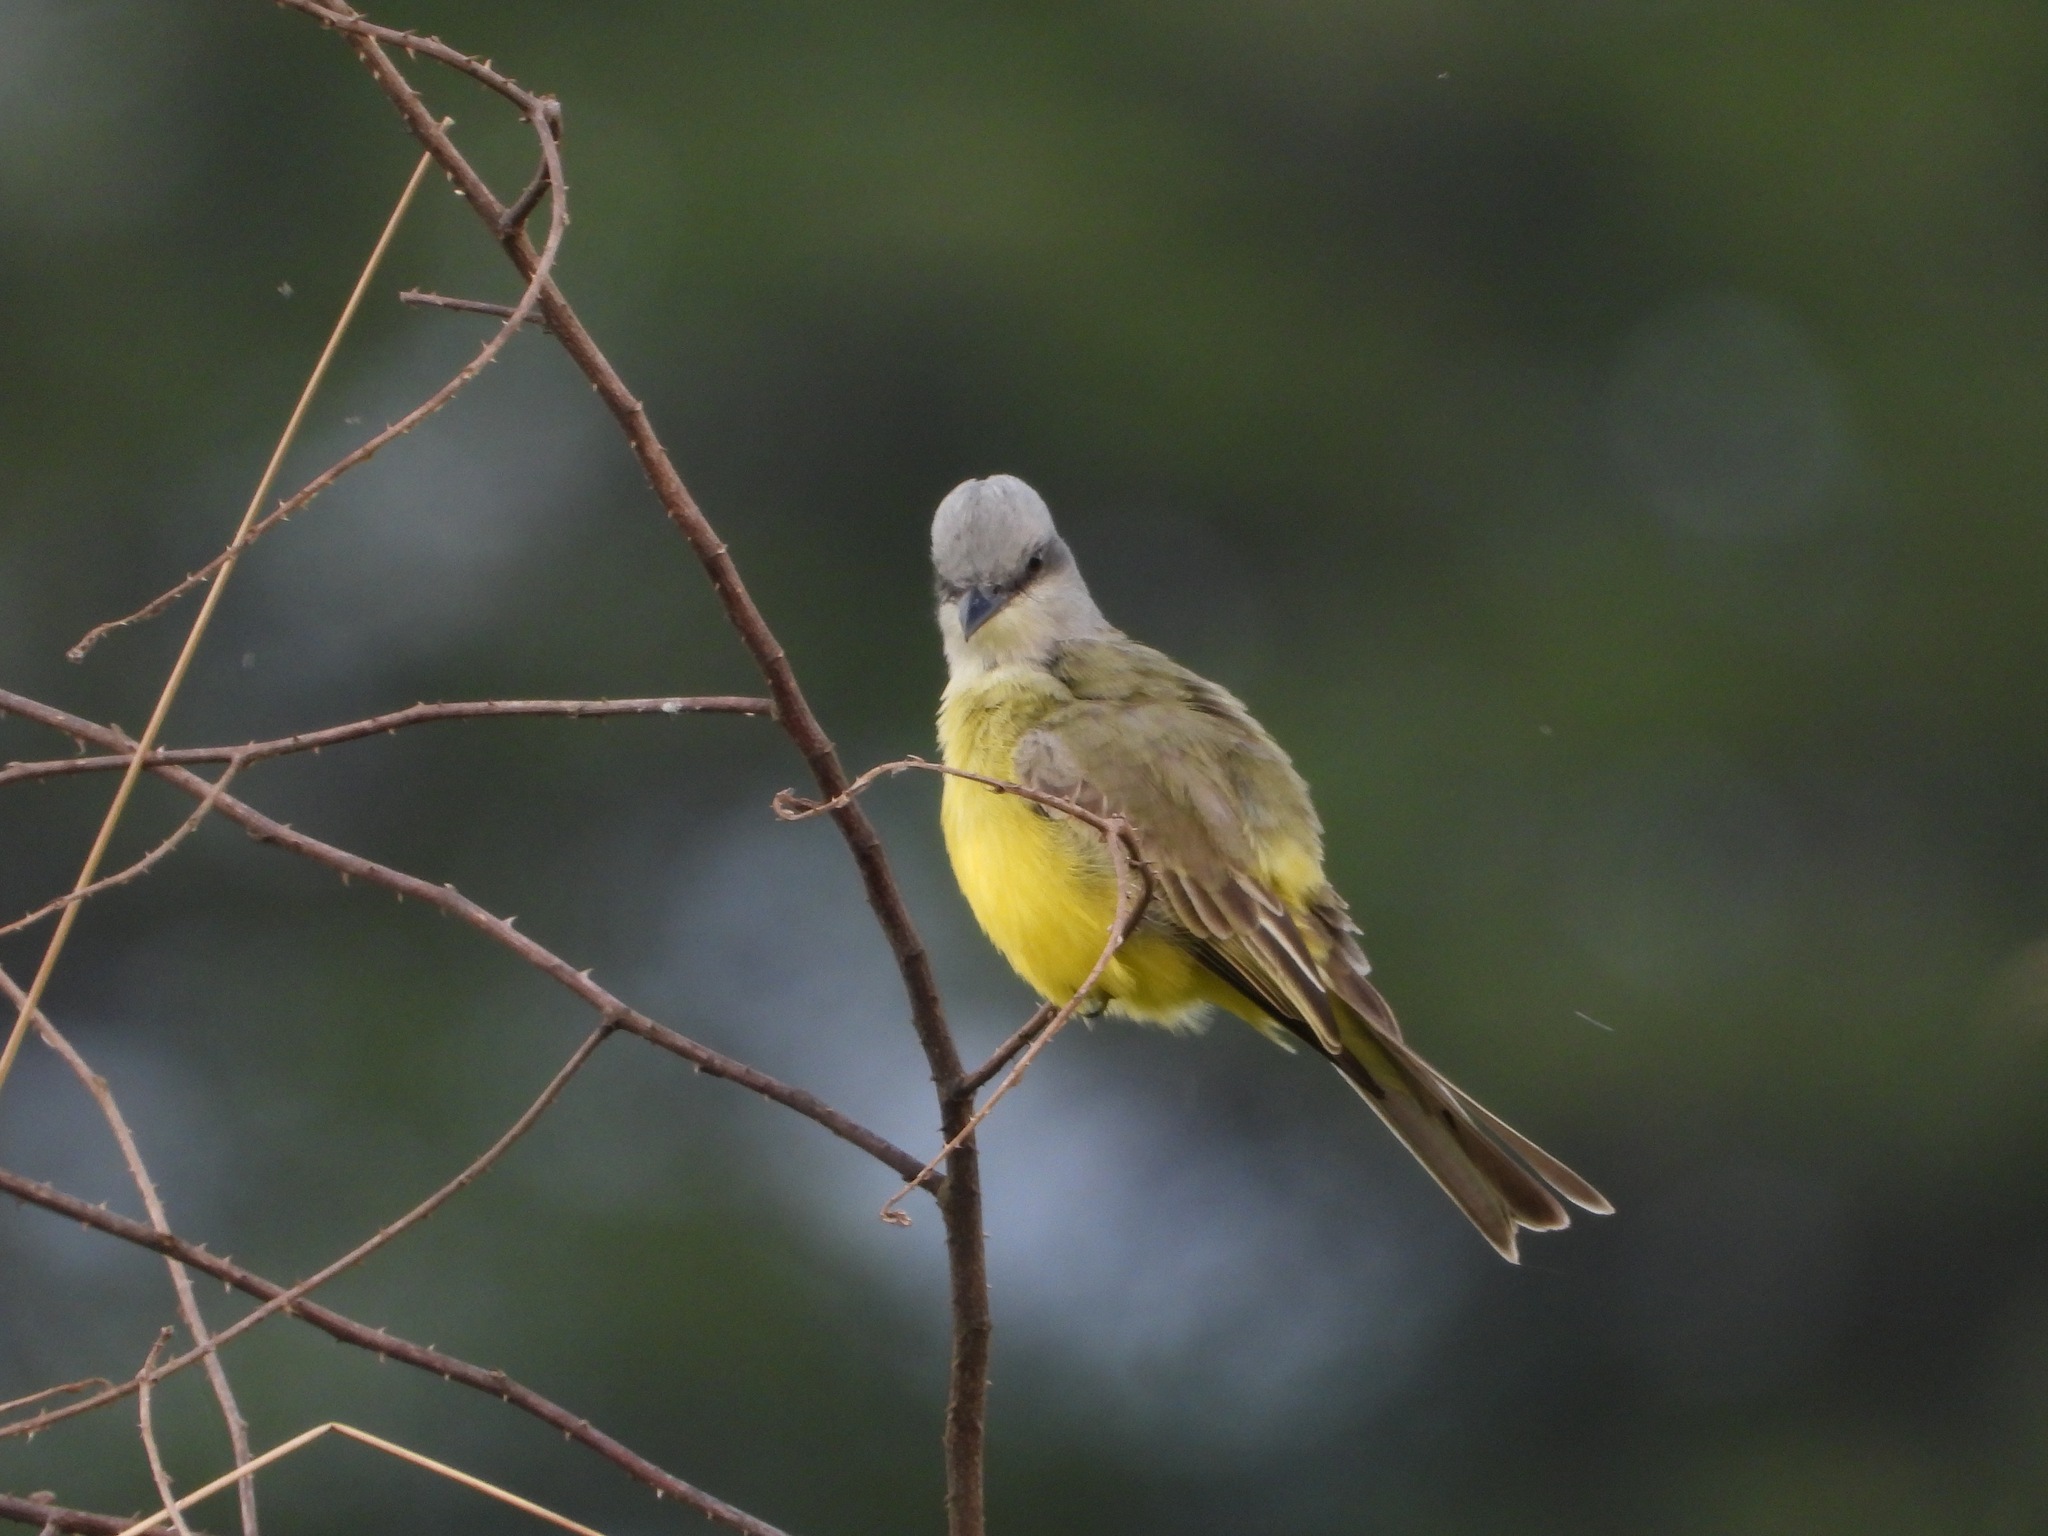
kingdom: Animalia
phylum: Chordata
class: Aves
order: Passeriformes
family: Tyrannidae
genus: Tyrannus
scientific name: Tyrannus melancholicus
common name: Tropical kingbird
